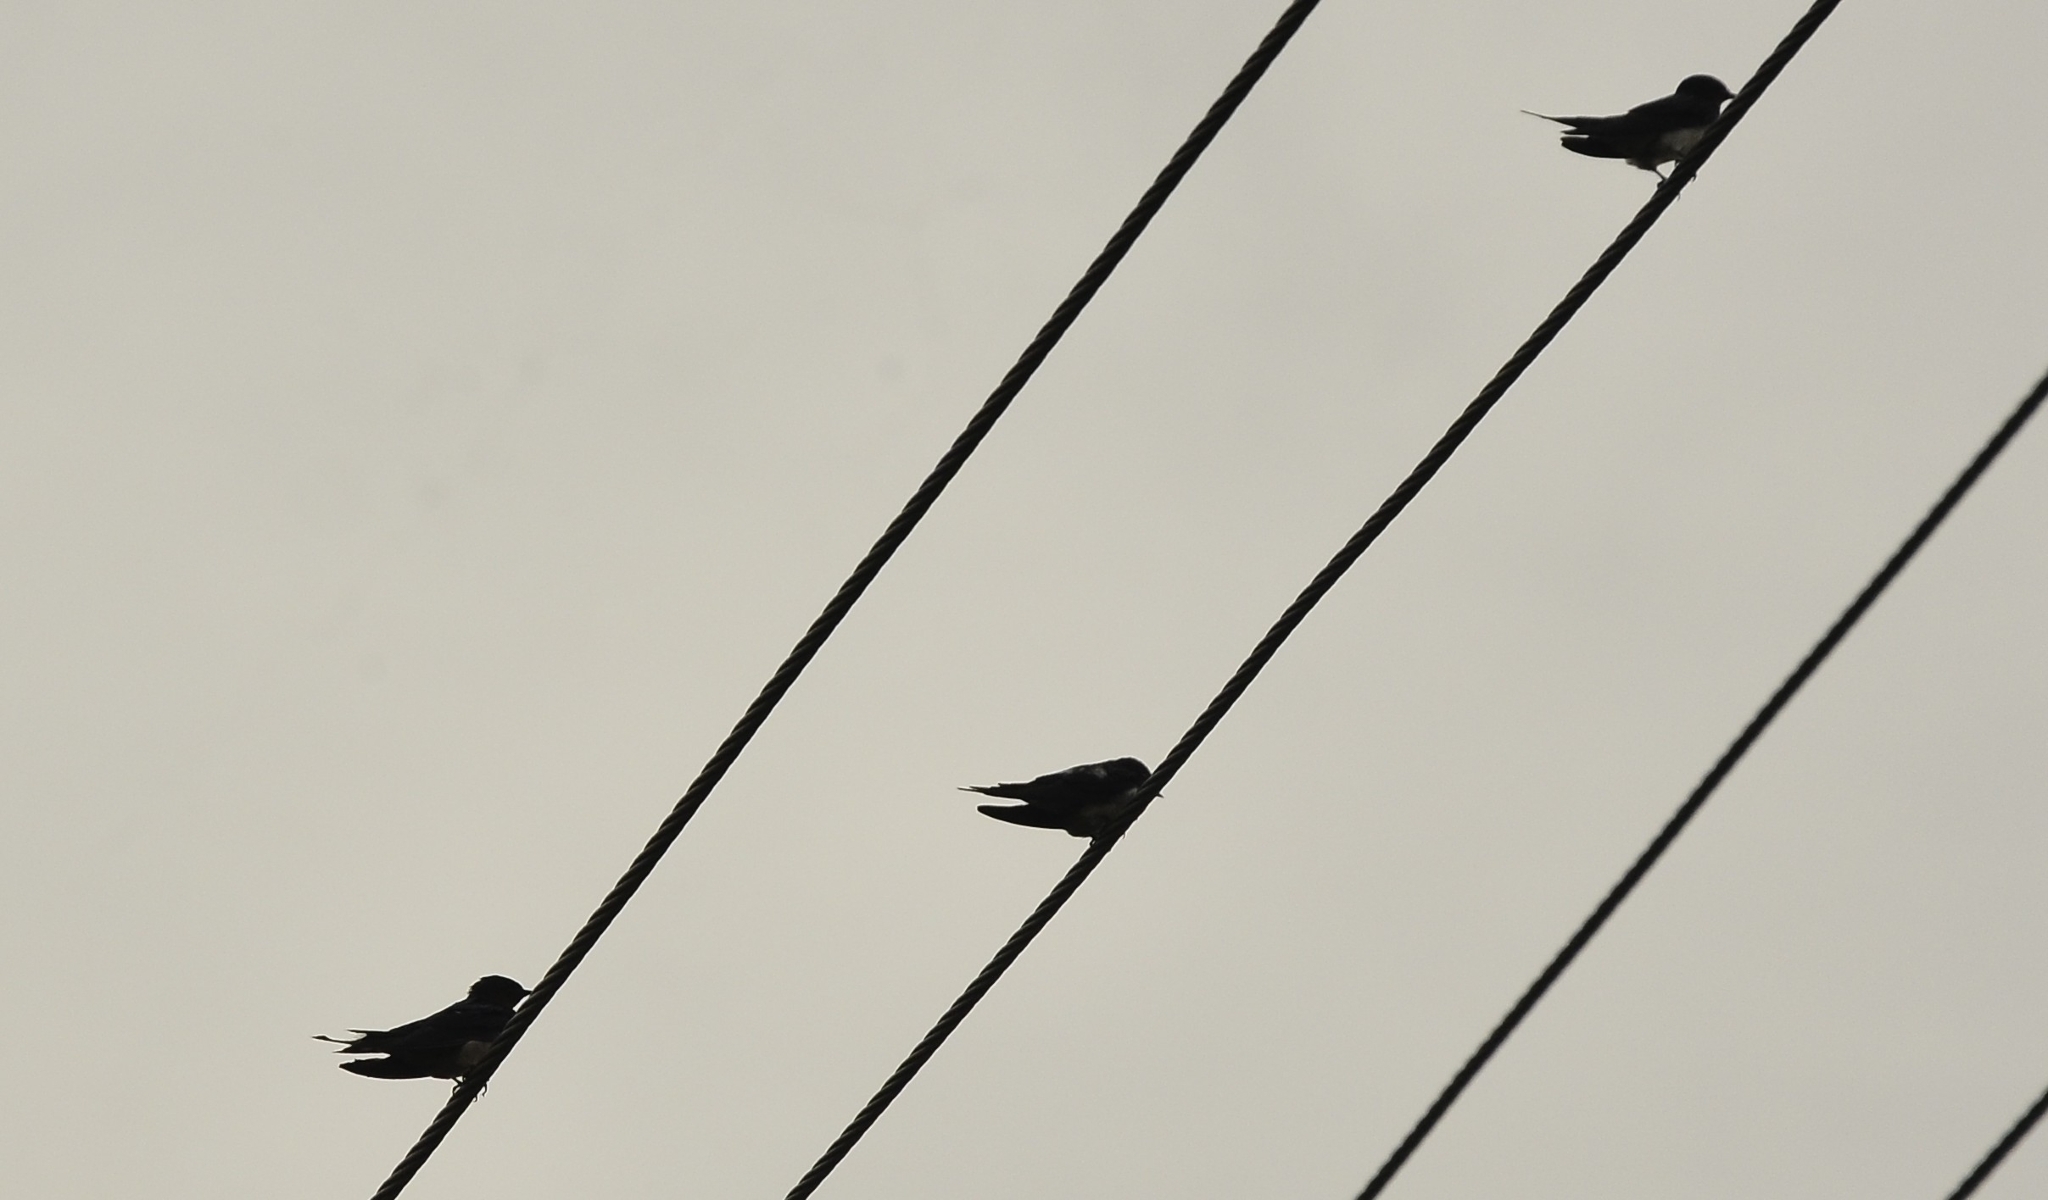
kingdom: Animalia
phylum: Chordata
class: Aves
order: Passeriformes
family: Hirundinidae
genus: Hirundo
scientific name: Hirundo rustica
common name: Barn swallow
